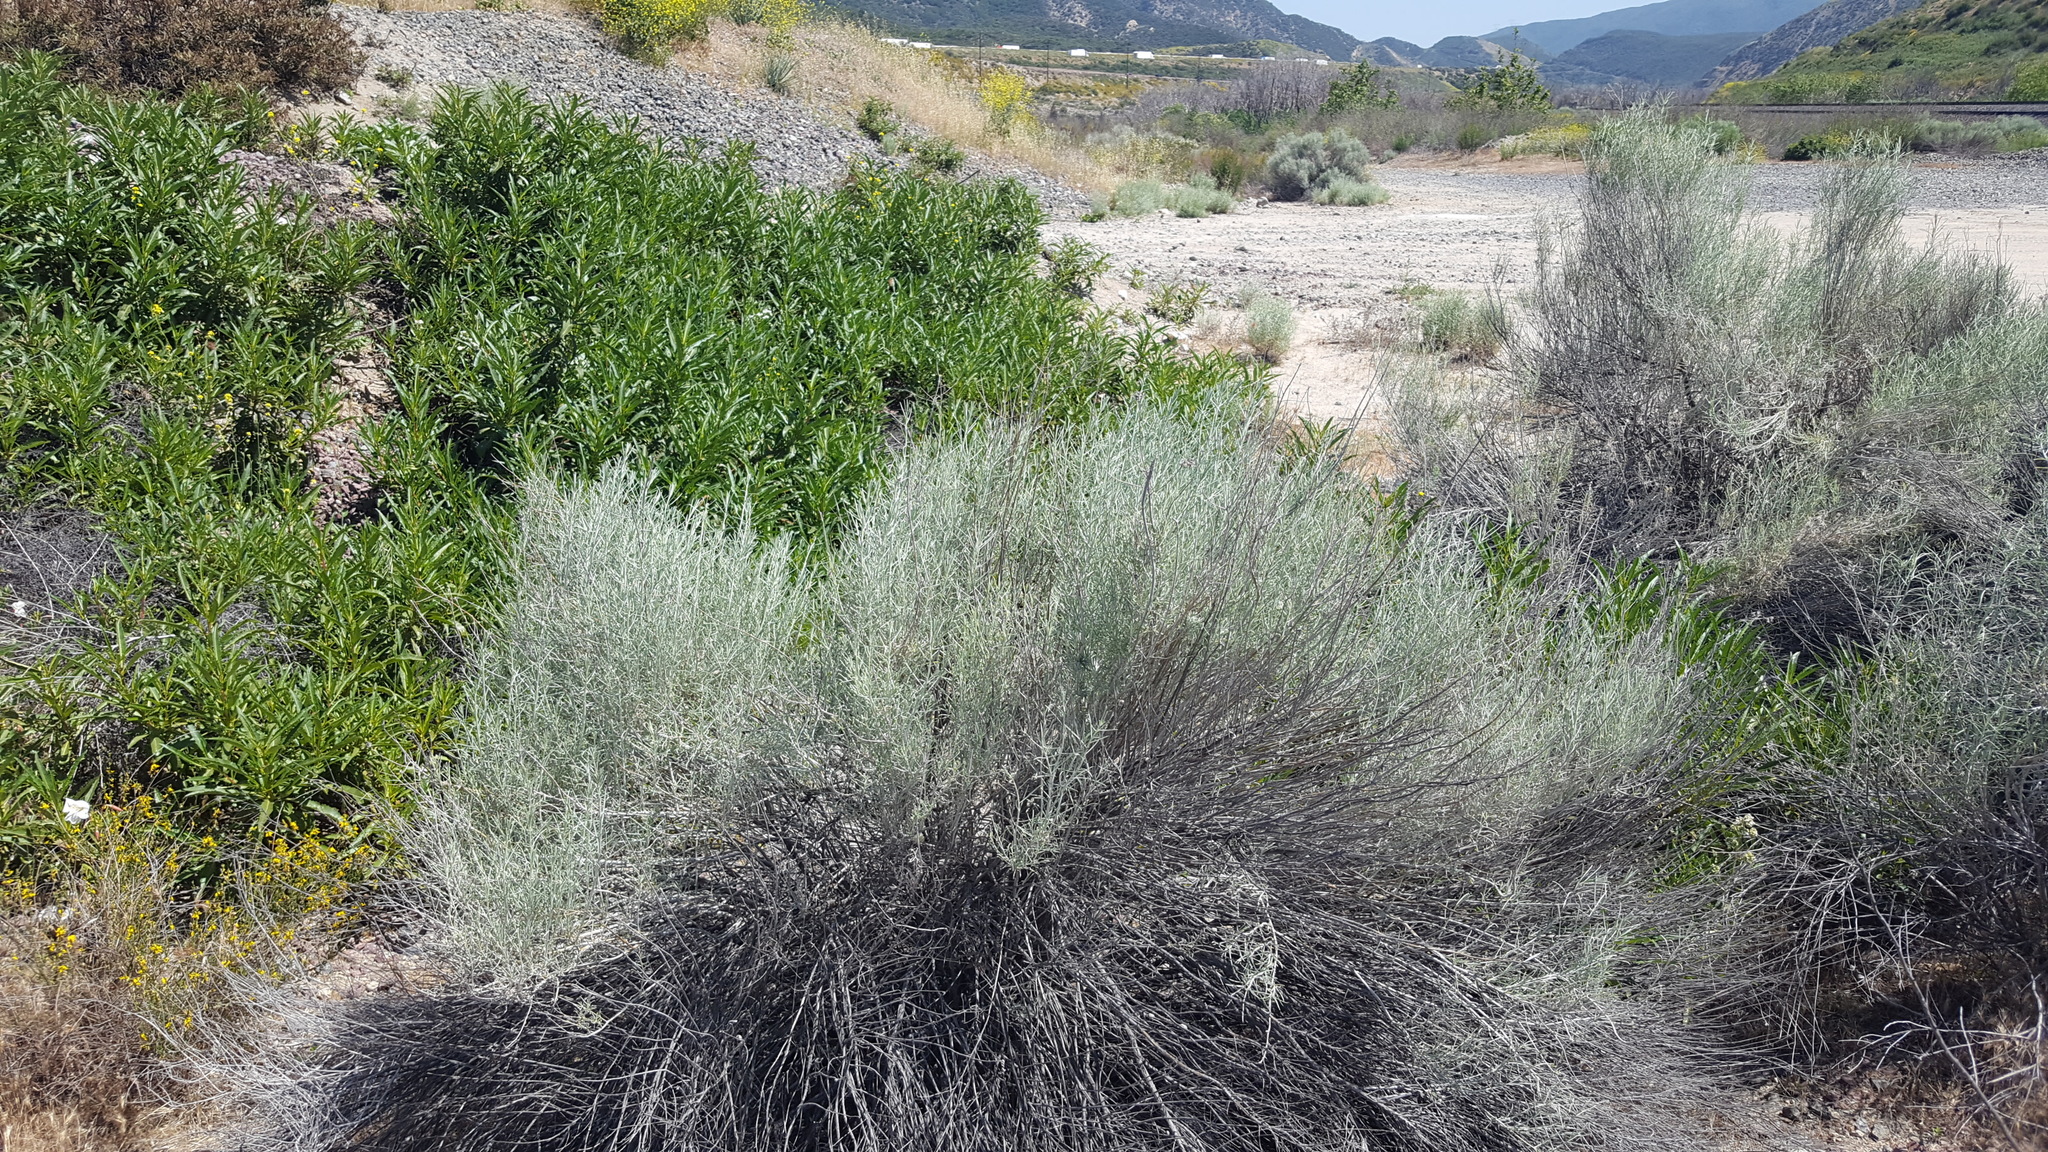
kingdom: Plantae
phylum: Tracheophyta
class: Magnoliopsida
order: Asterales
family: Asteraceae
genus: Ericameria
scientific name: Ericameria nauseosa
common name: Rubber rabbitbrush
